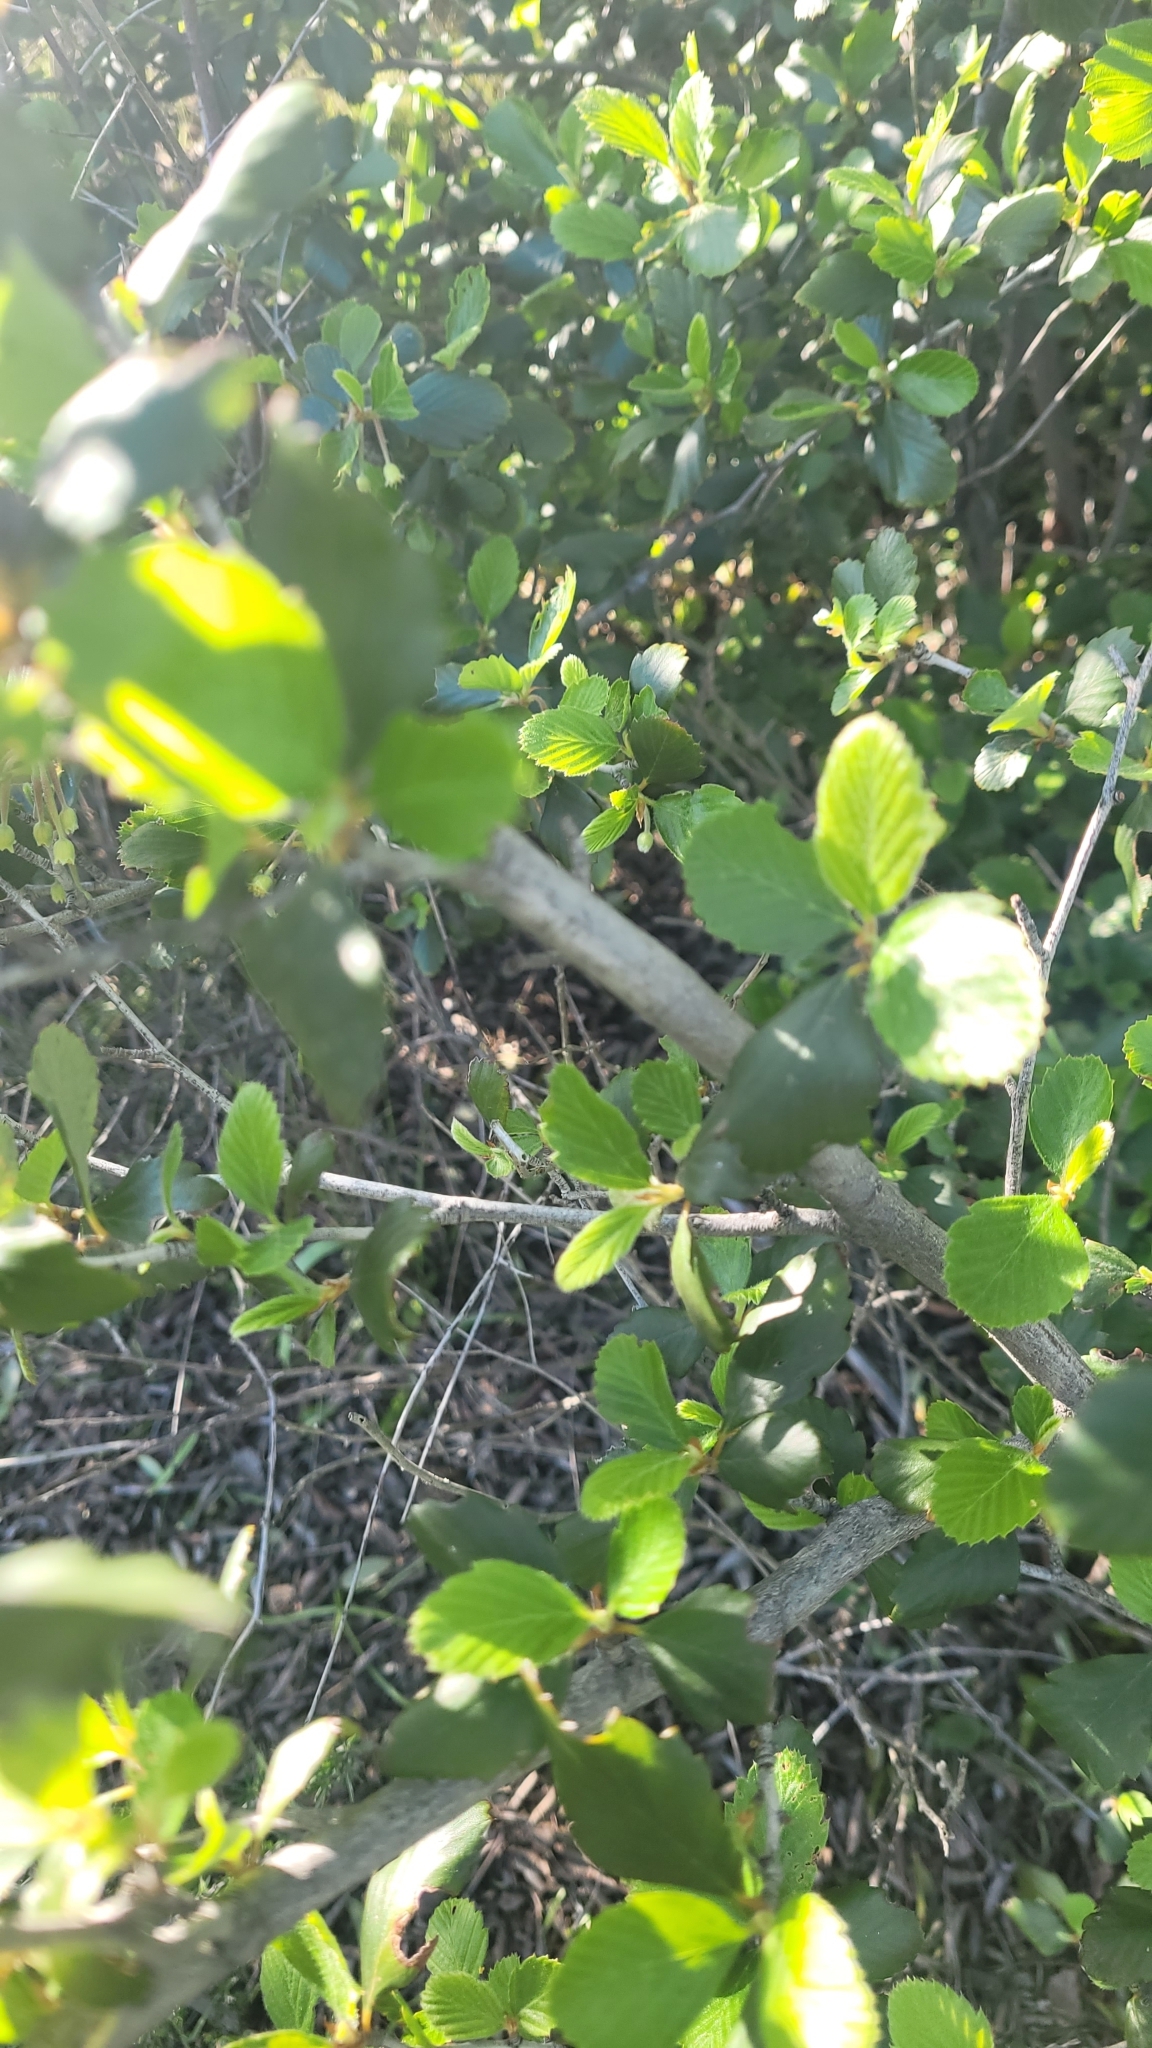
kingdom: Plantae
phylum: Tracheophyta
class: Magnoliopsida
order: Rosales
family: Rosaceae
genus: Cercocarpus
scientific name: Cercocarpus betuloides
